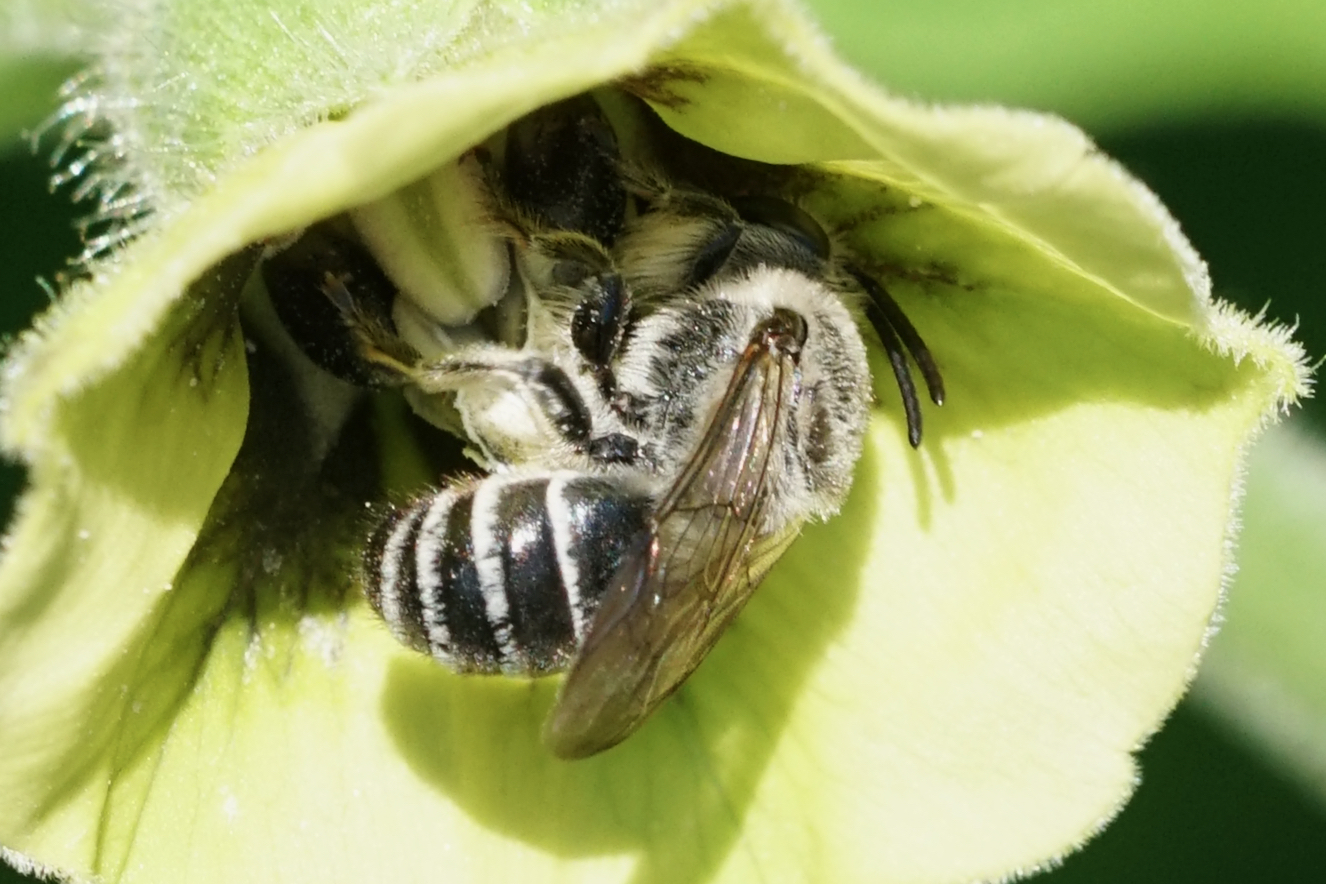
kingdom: Animalia
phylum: Arthropoda
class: Insecta
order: Hymenoptera
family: Colletidae
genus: Colletes
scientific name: Colletes latitarsis
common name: Broad-footed cellophane bee
